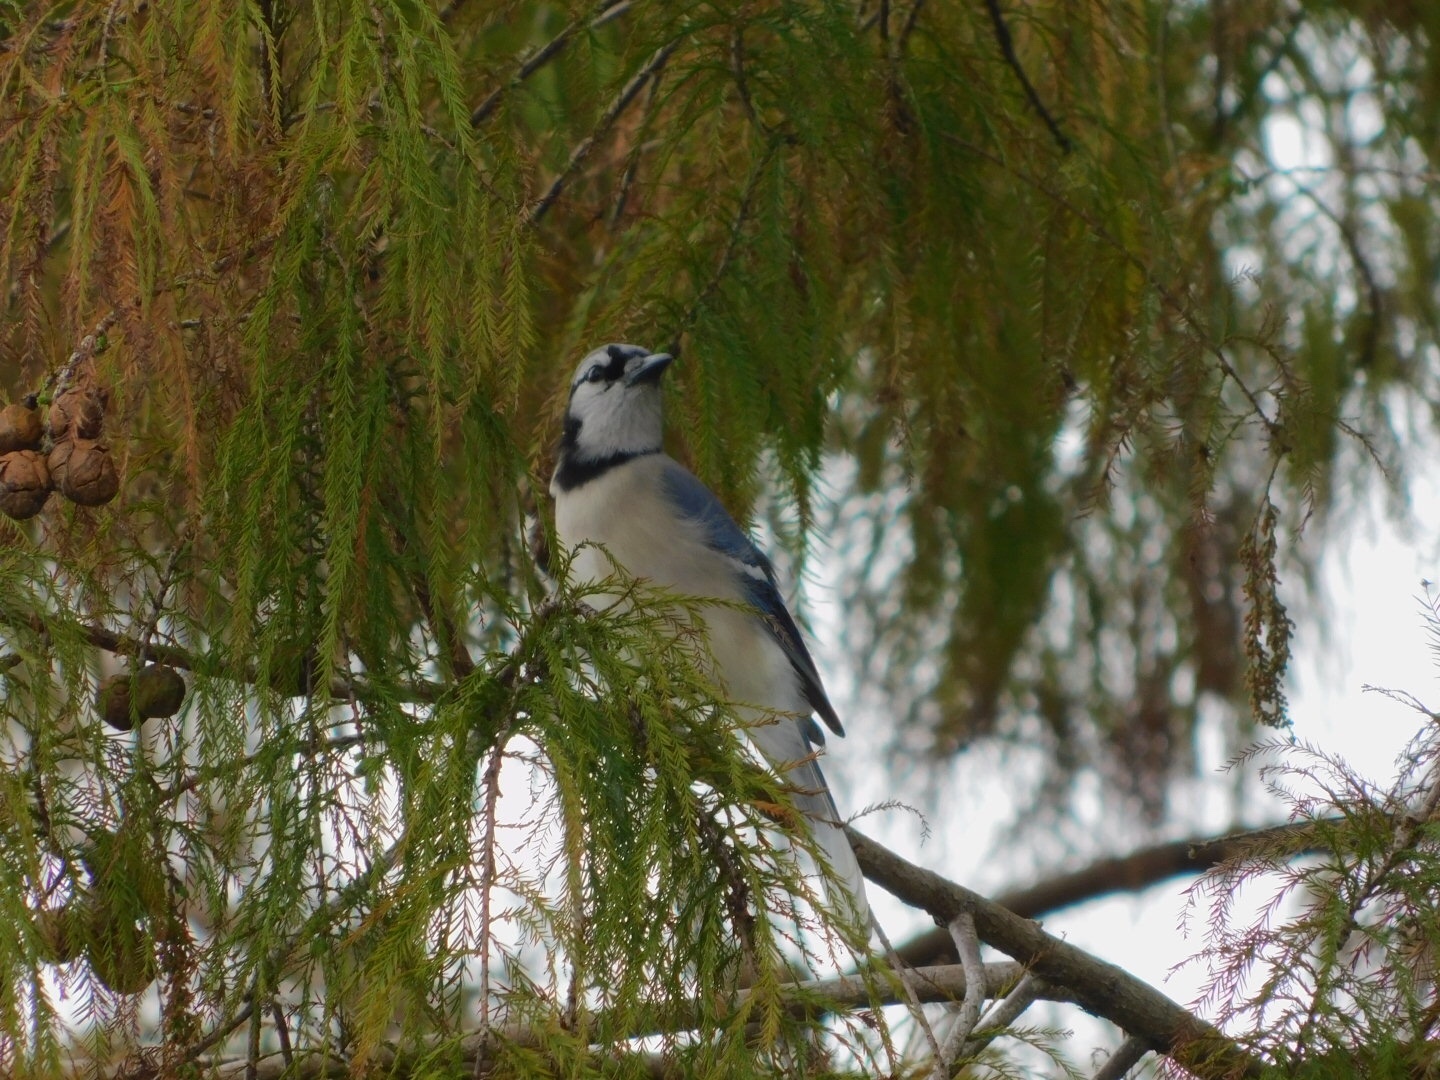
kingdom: Animalia
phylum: Chordata
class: Aves
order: Passeriformes
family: Corvidae
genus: Cyanocitta
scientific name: Cyanocitta cristata
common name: Blue jay
